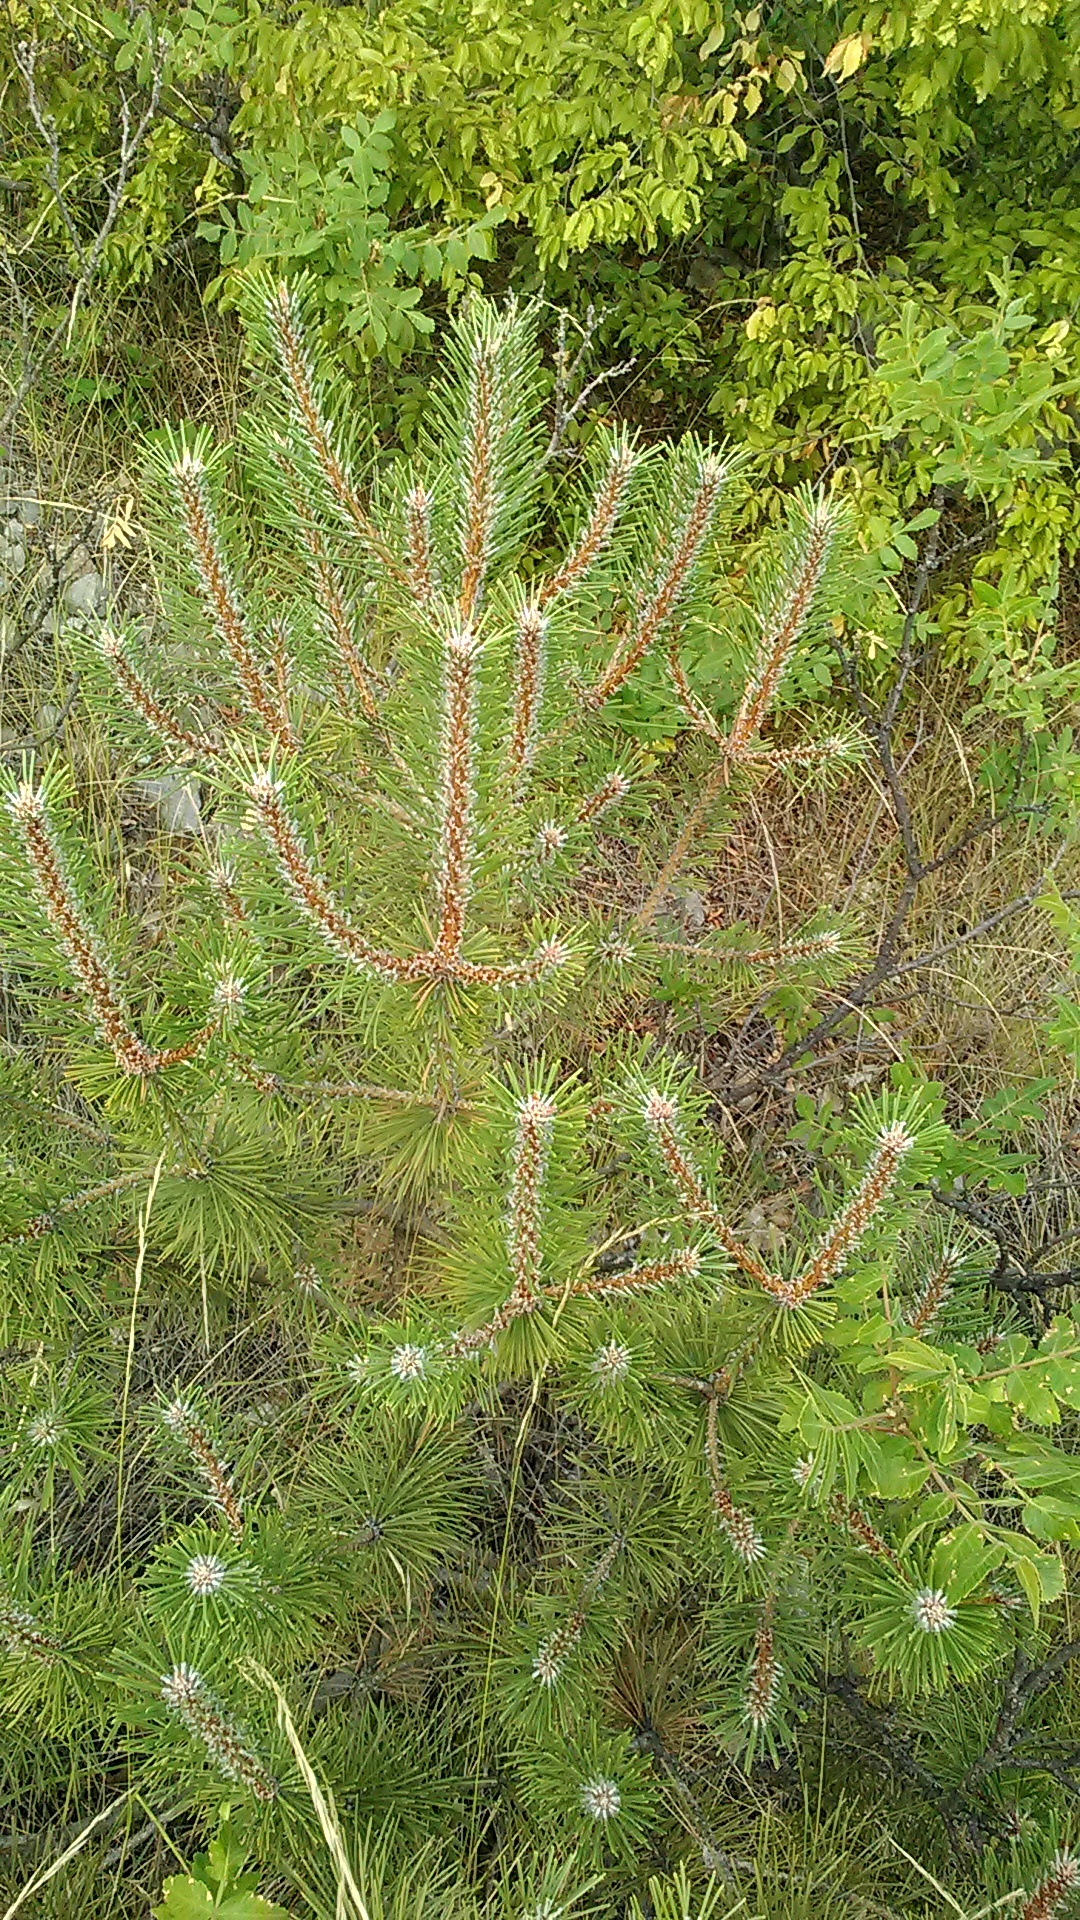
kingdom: Plantae
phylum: Tracheophyta
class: Pinopsida
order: Pinales
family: Pinaceae
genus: Pinus
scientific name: Pinus nigra
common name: Austrian pine
